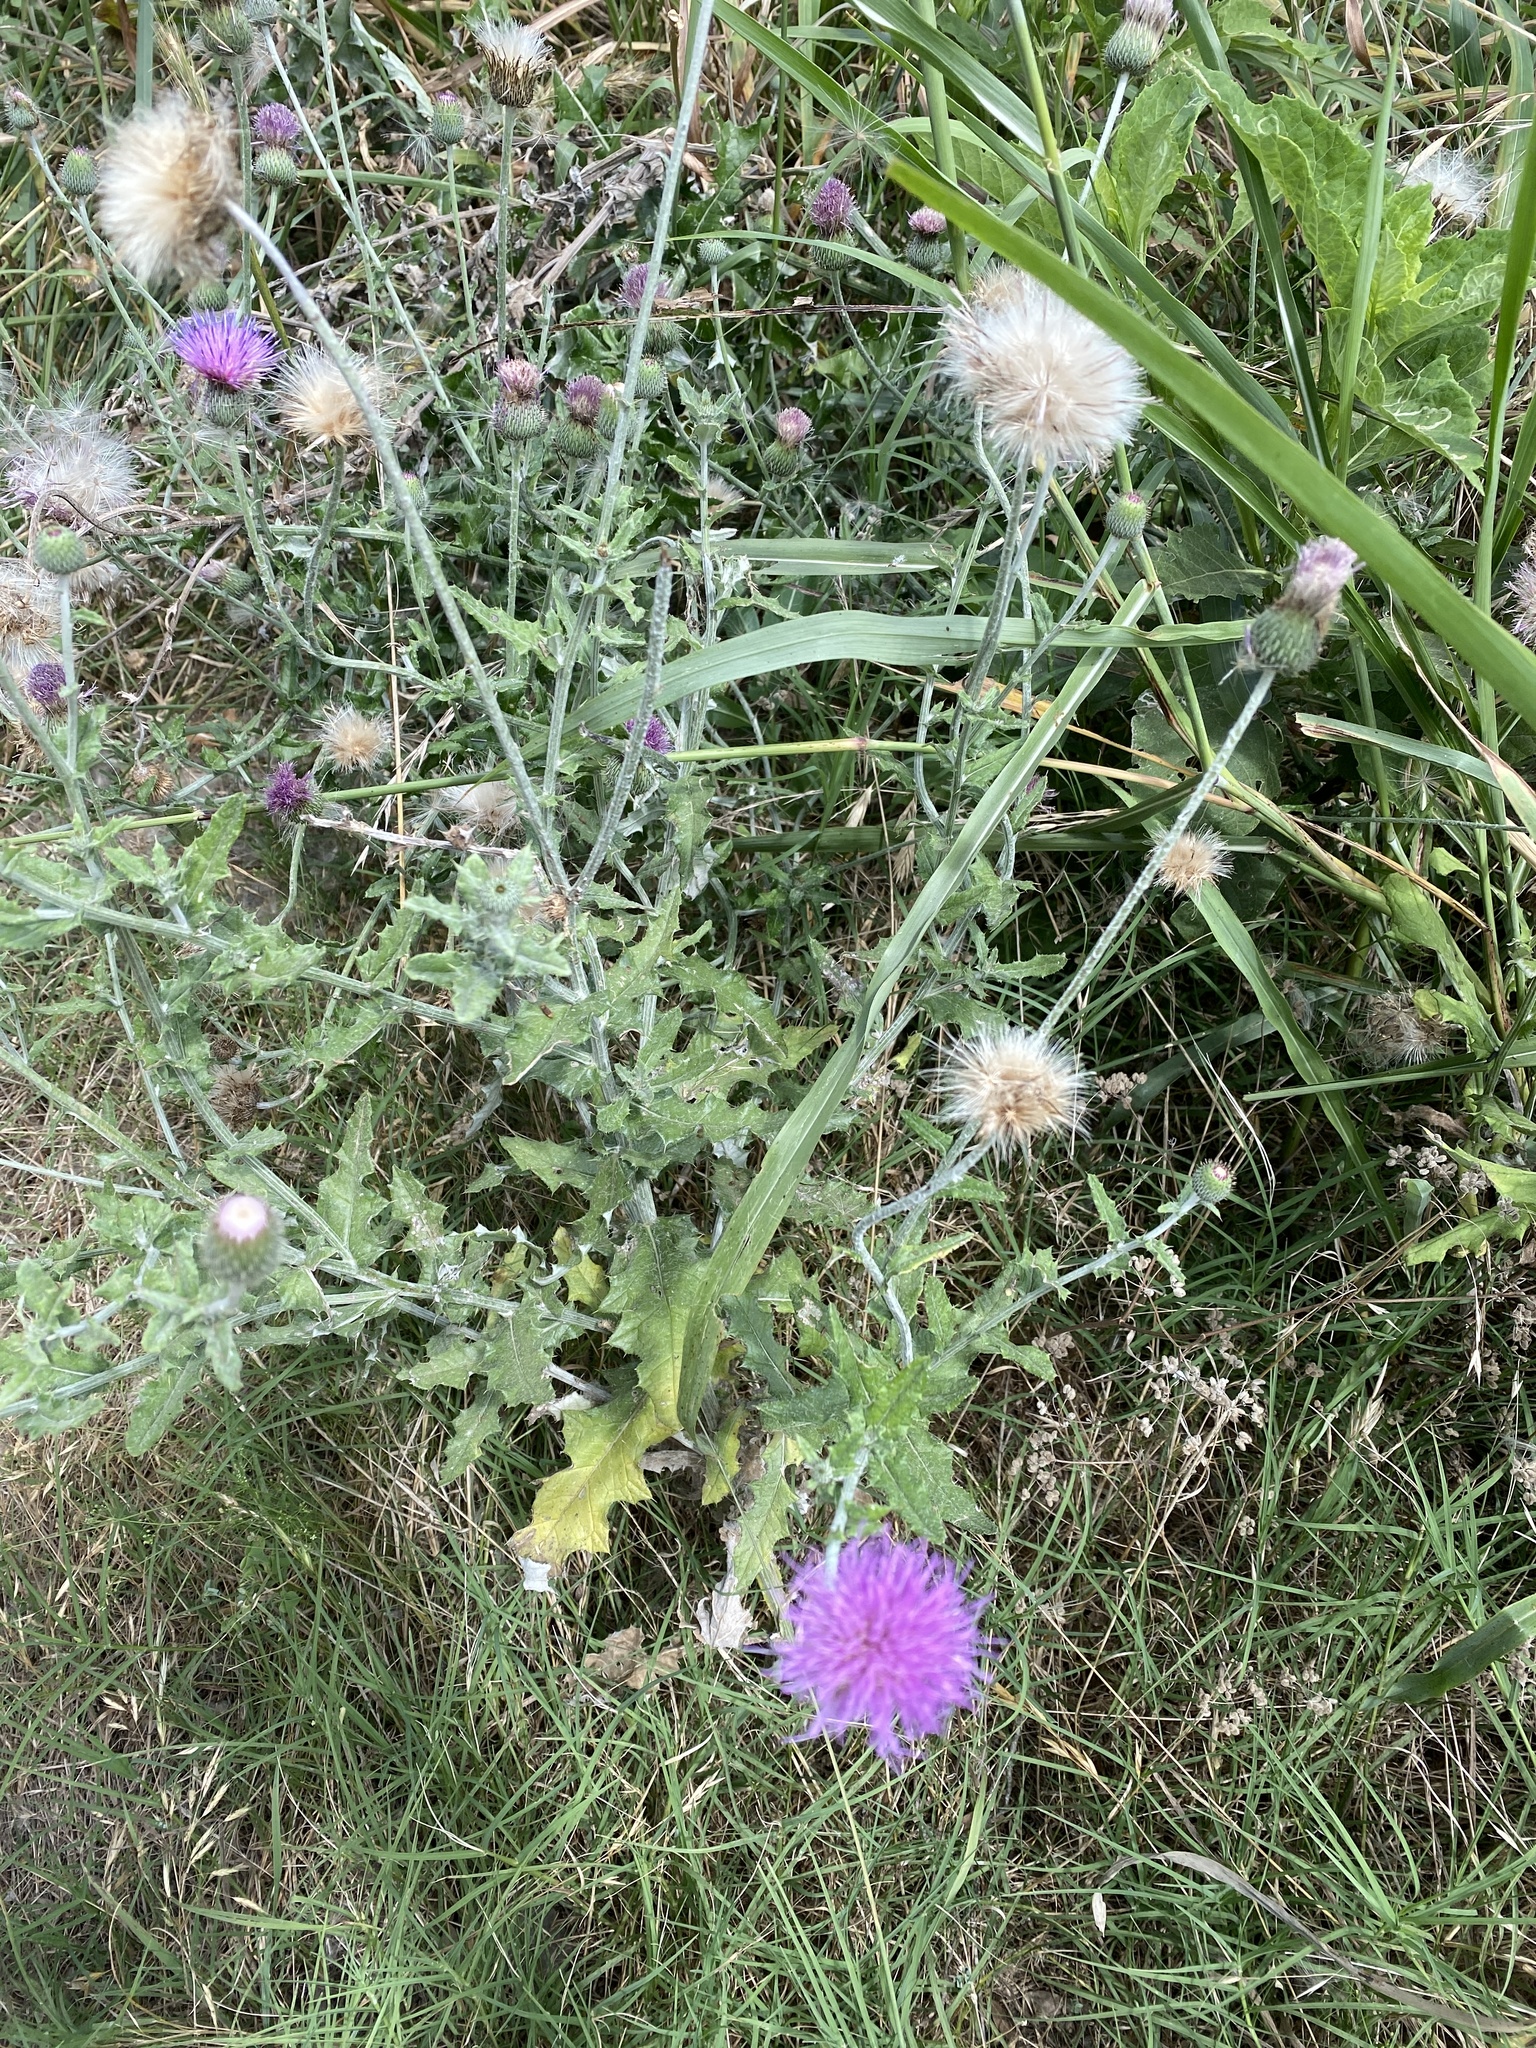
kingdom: Plantae
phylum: Tracheophyta
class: Magnoliopsida
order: Asterales
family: Asteraceae
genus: Cirsium
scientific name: Cirsium texanum
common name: Texas purple thistle
